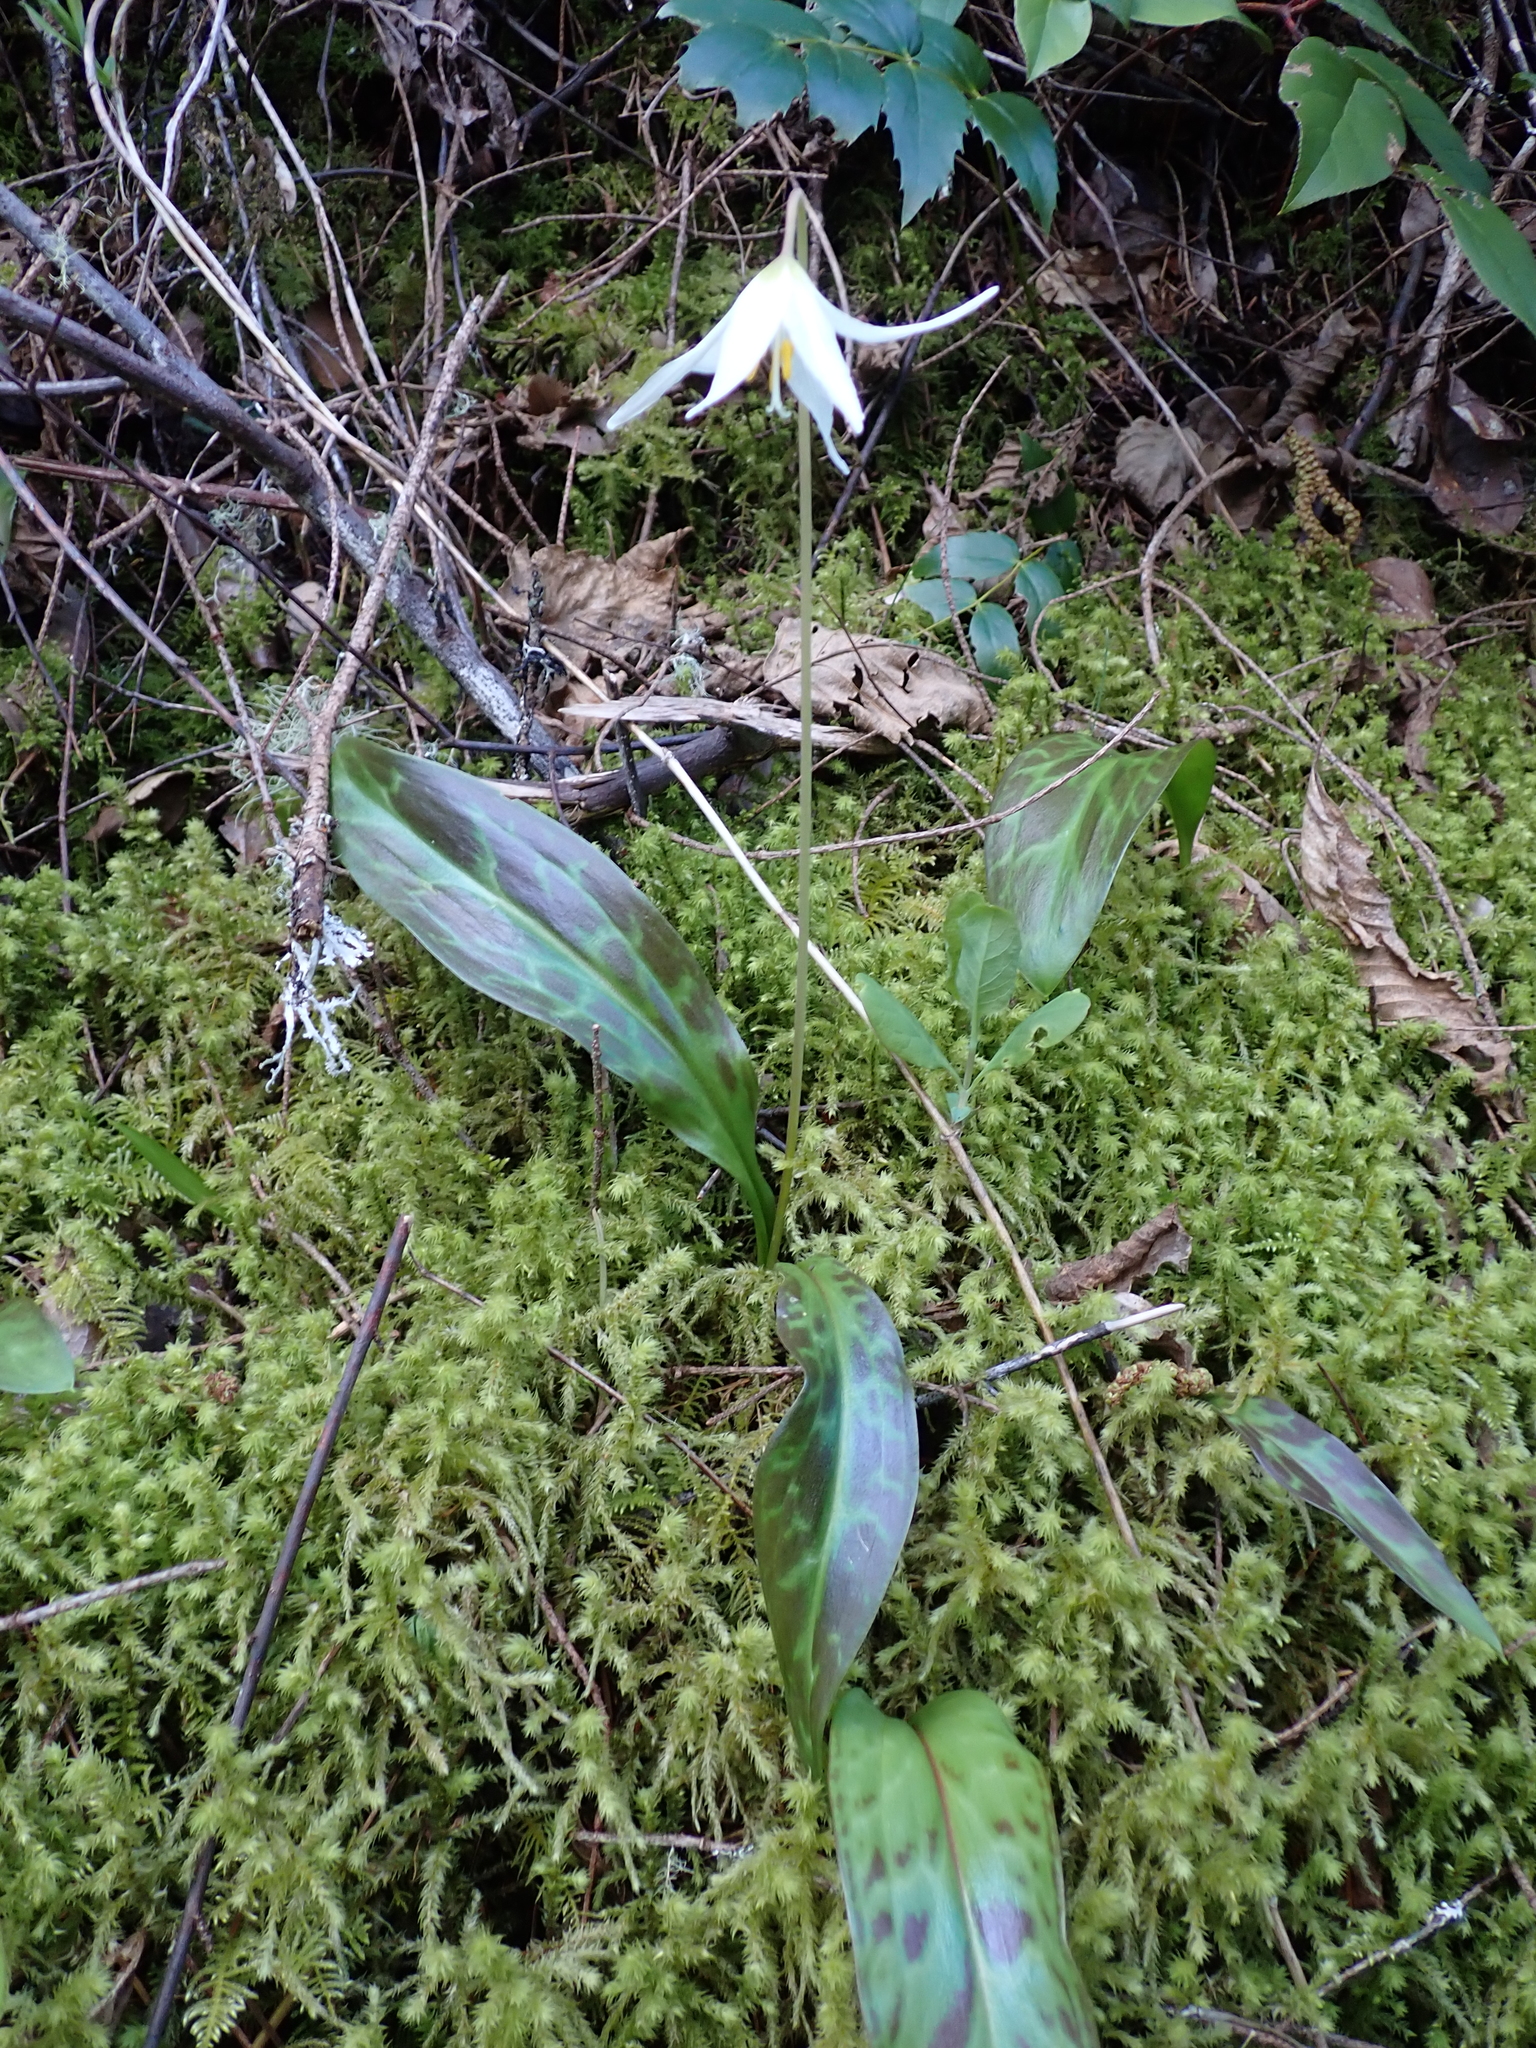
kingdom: Plantae
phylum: Tracheophyta
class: Liliopsida
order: Liliales
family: Liliaceae
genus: Erythronium
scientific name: Erythronium oregonum
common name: Giant adder's-tongue
